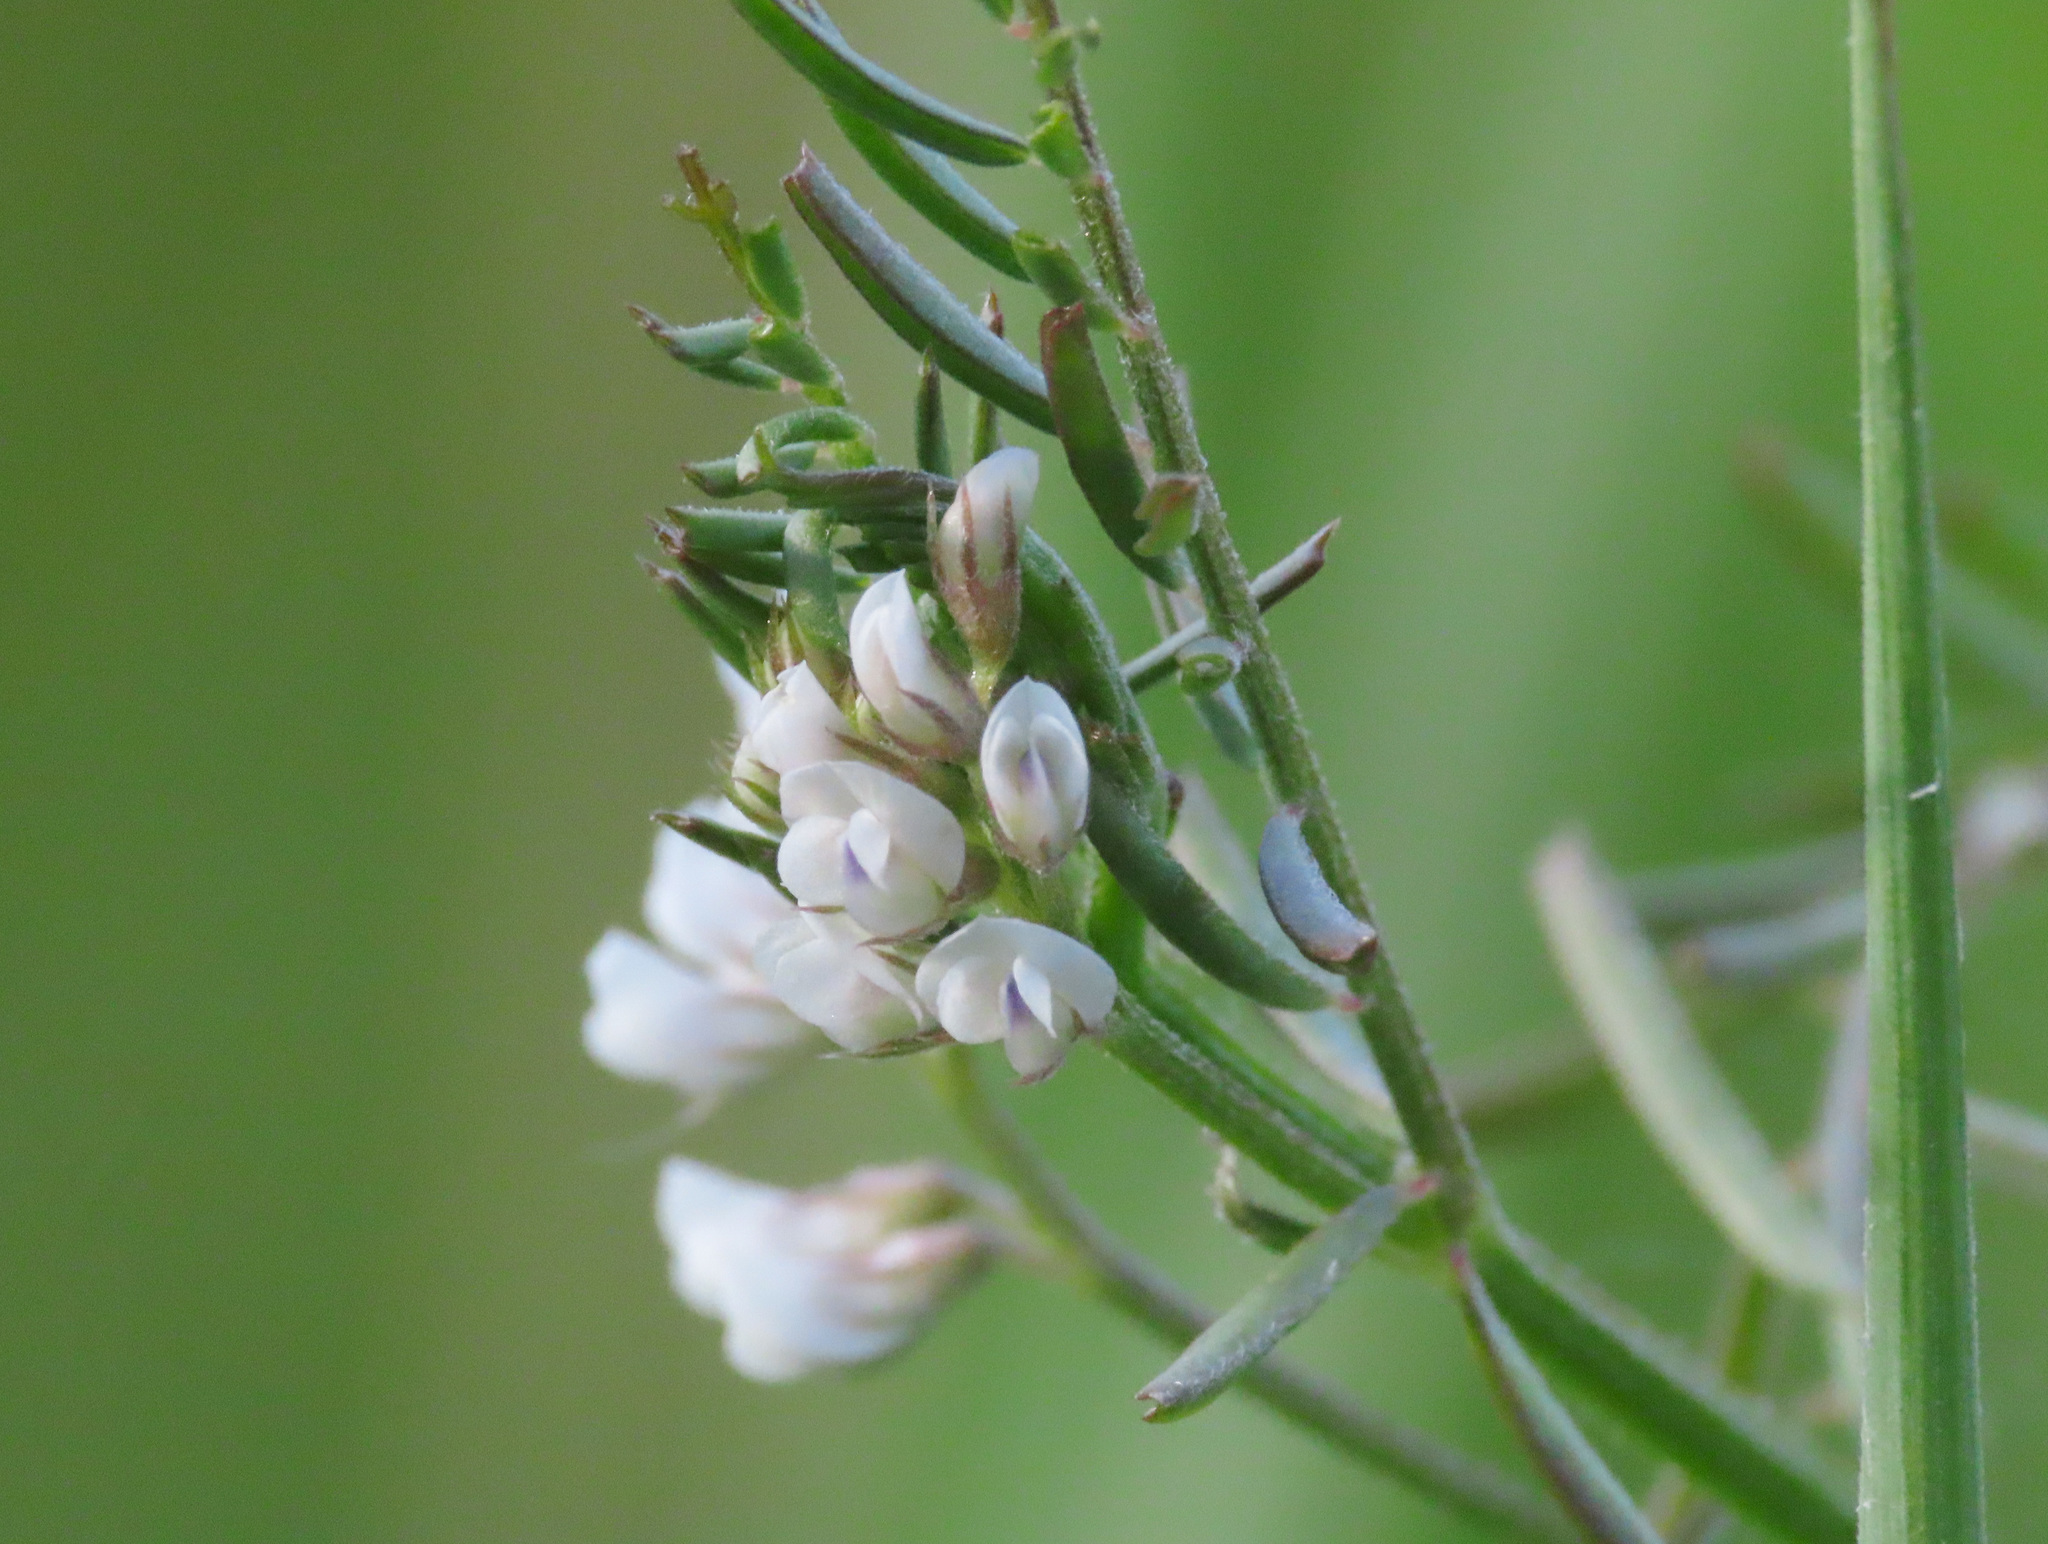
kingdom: Plantae
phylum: Tracheophyta
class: Magnoliopsida
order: Fabales
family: Fabaceae
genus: Vicia
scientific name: Vicia hirsuta
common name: Tiny vetch
